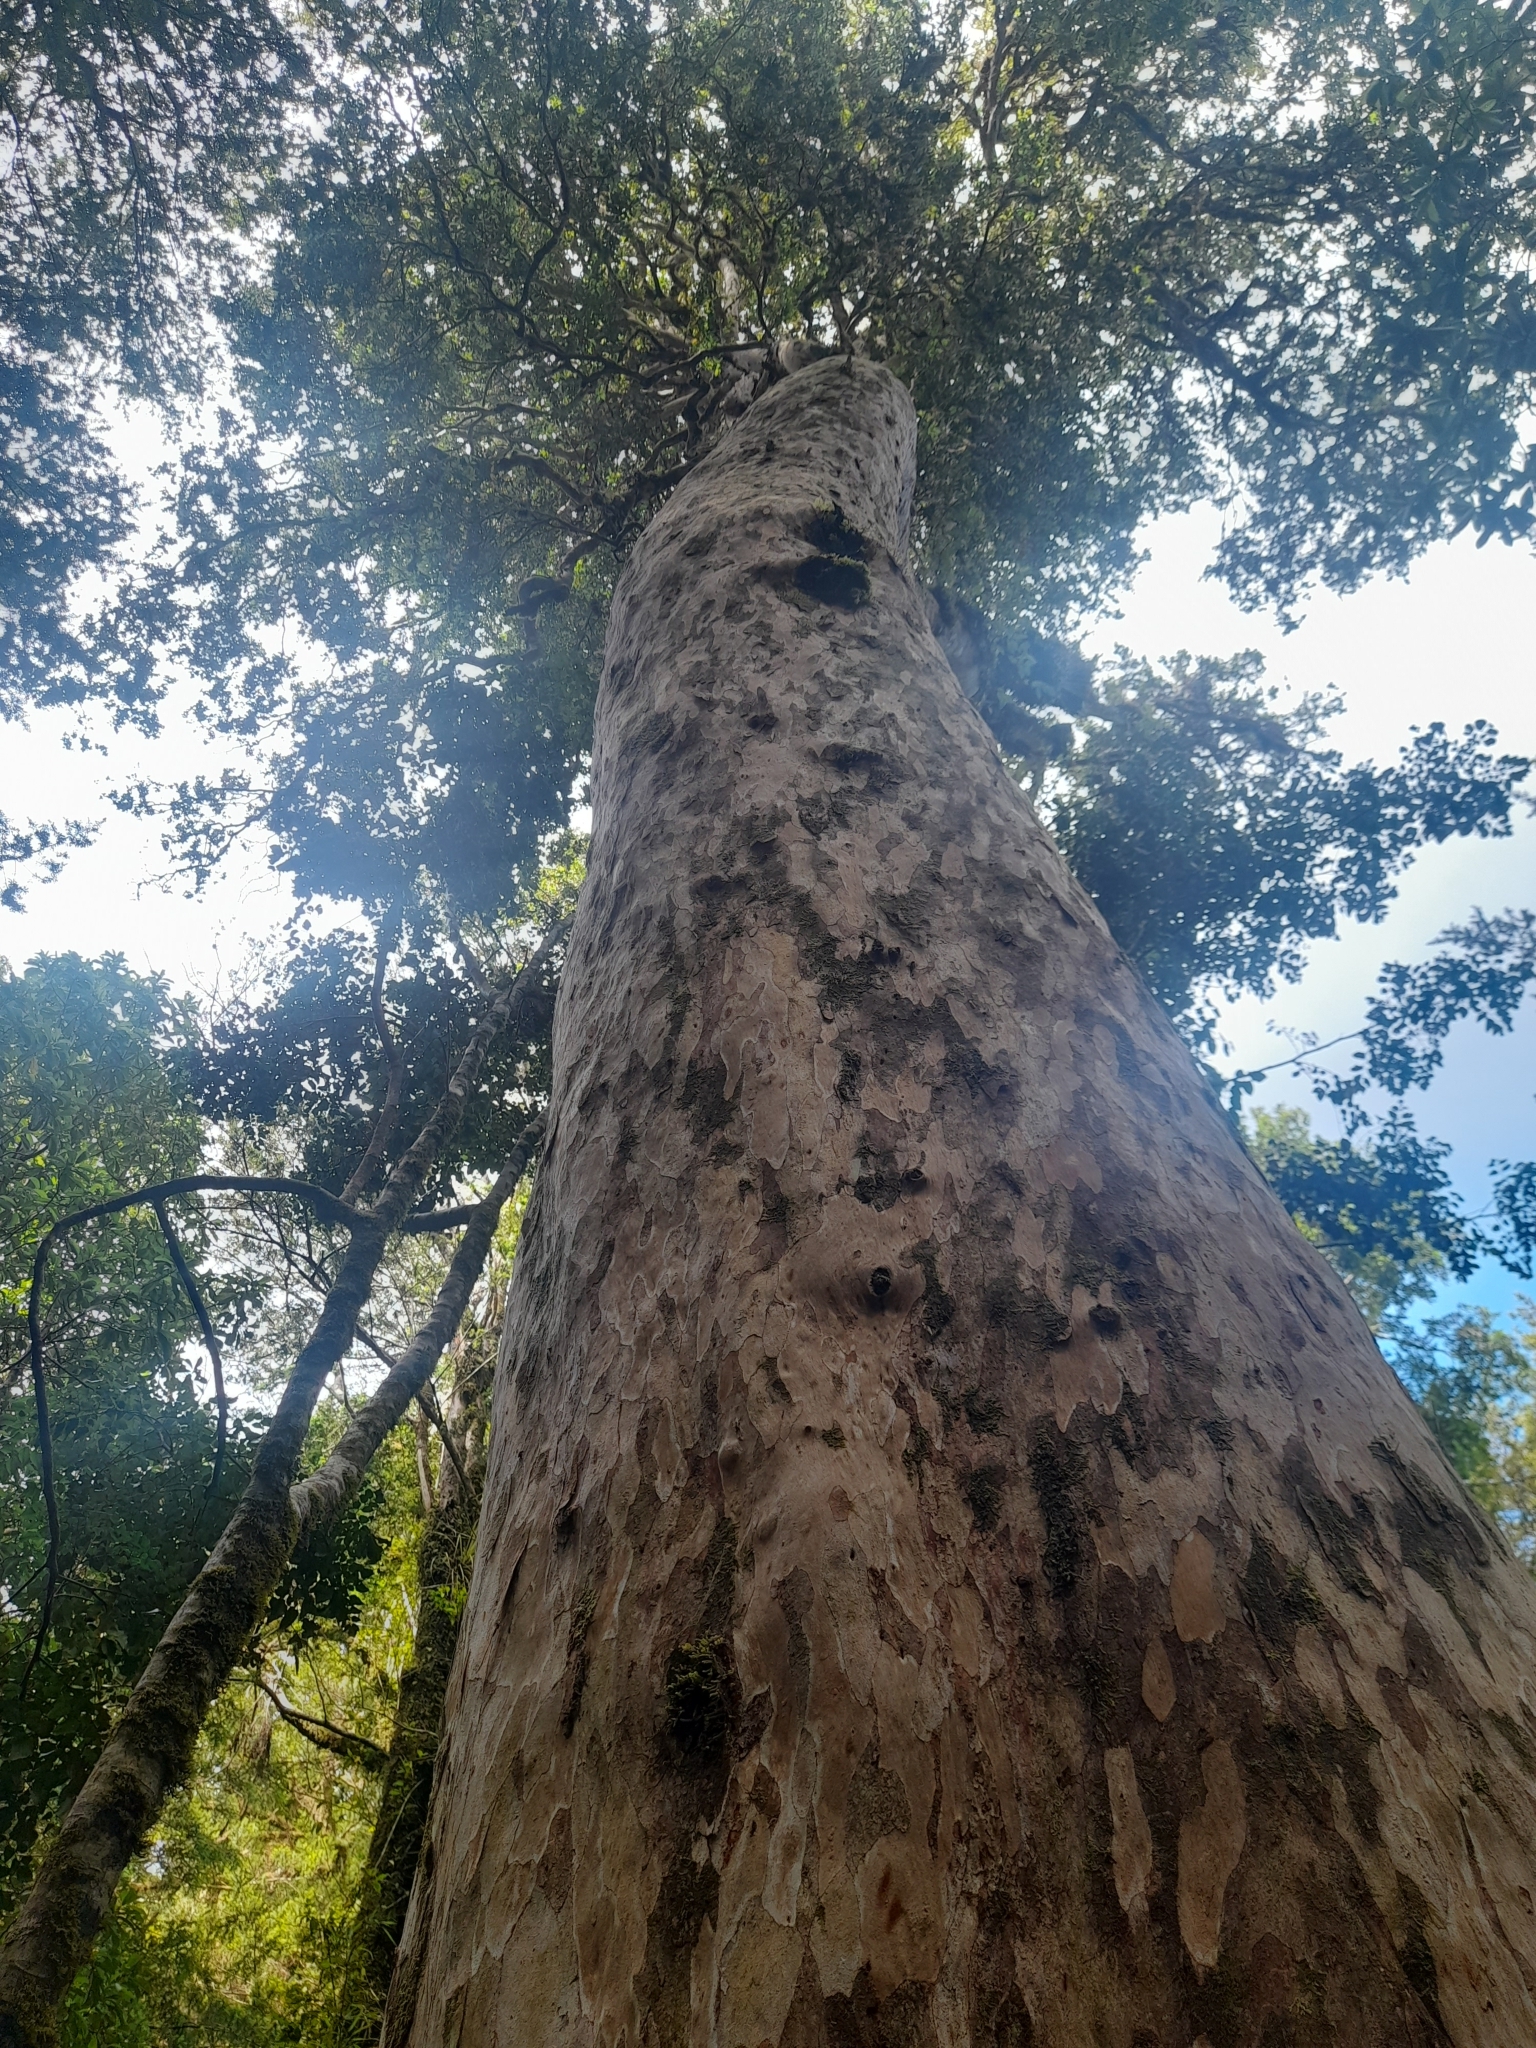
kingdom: Plantae
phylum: Tracheophyta
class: Magnoliopsida
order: Myrtales
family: Myrtaceae
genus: Amomyrtus
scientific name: Amomyrtus meli
